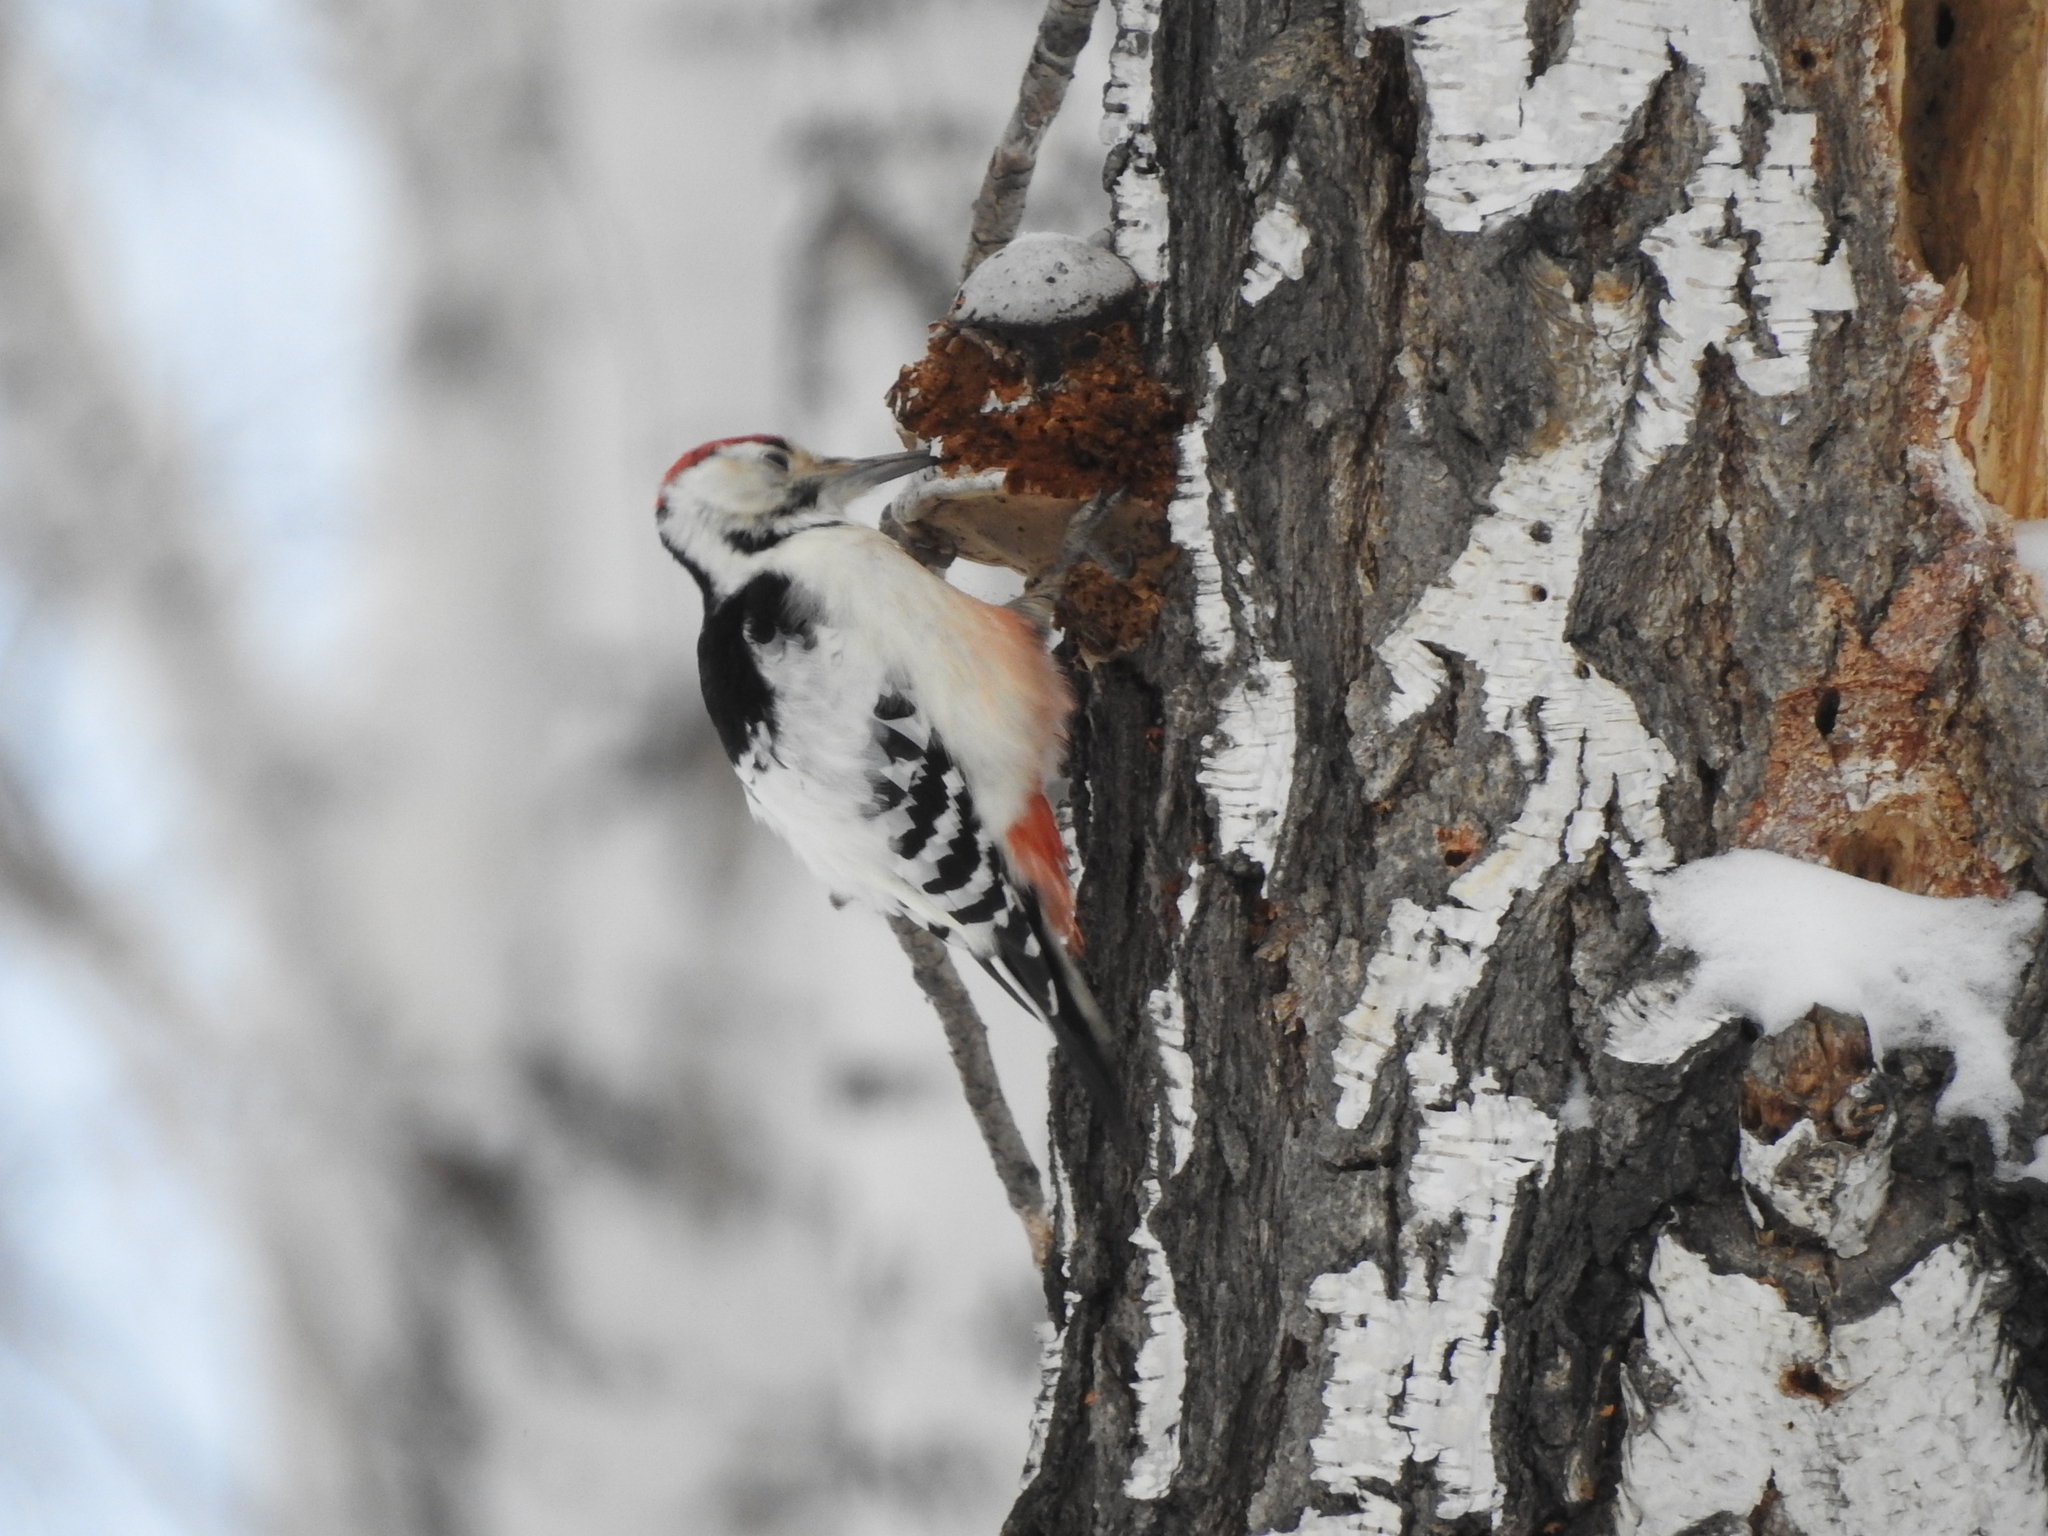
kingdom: Animalia
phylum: Chordata
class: Aves
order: Piciformes
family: Picidae
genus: Dendrocopos
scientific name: Dendrocopos leucotos
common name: White-backed woodpecker
